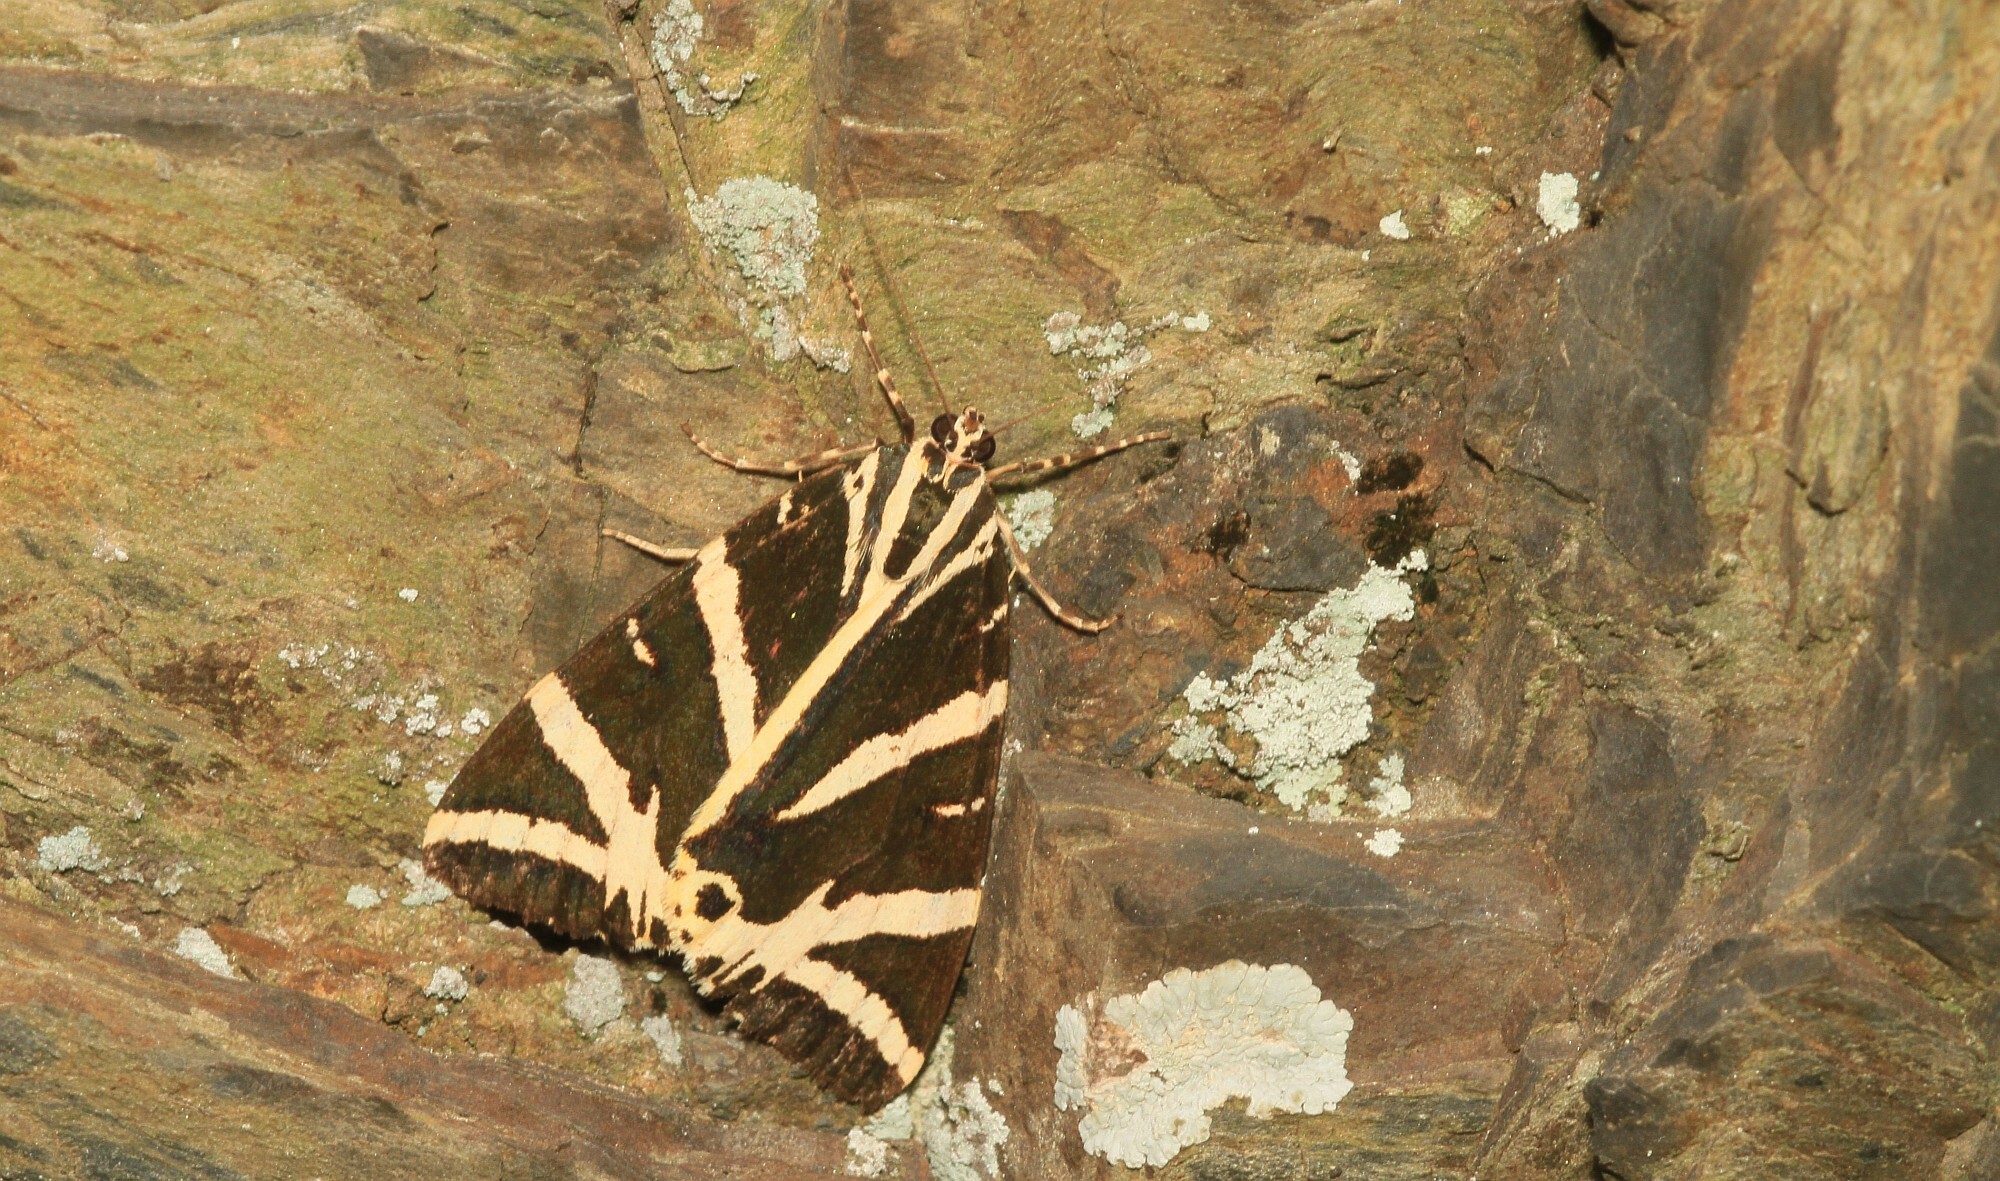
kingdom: Animalia
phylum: Arthropoda
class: Insecta
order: Lepidoptera
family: Erebidae
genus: Euplagia
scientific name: Euplagia quadripunctaria
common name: Jersey tiger
